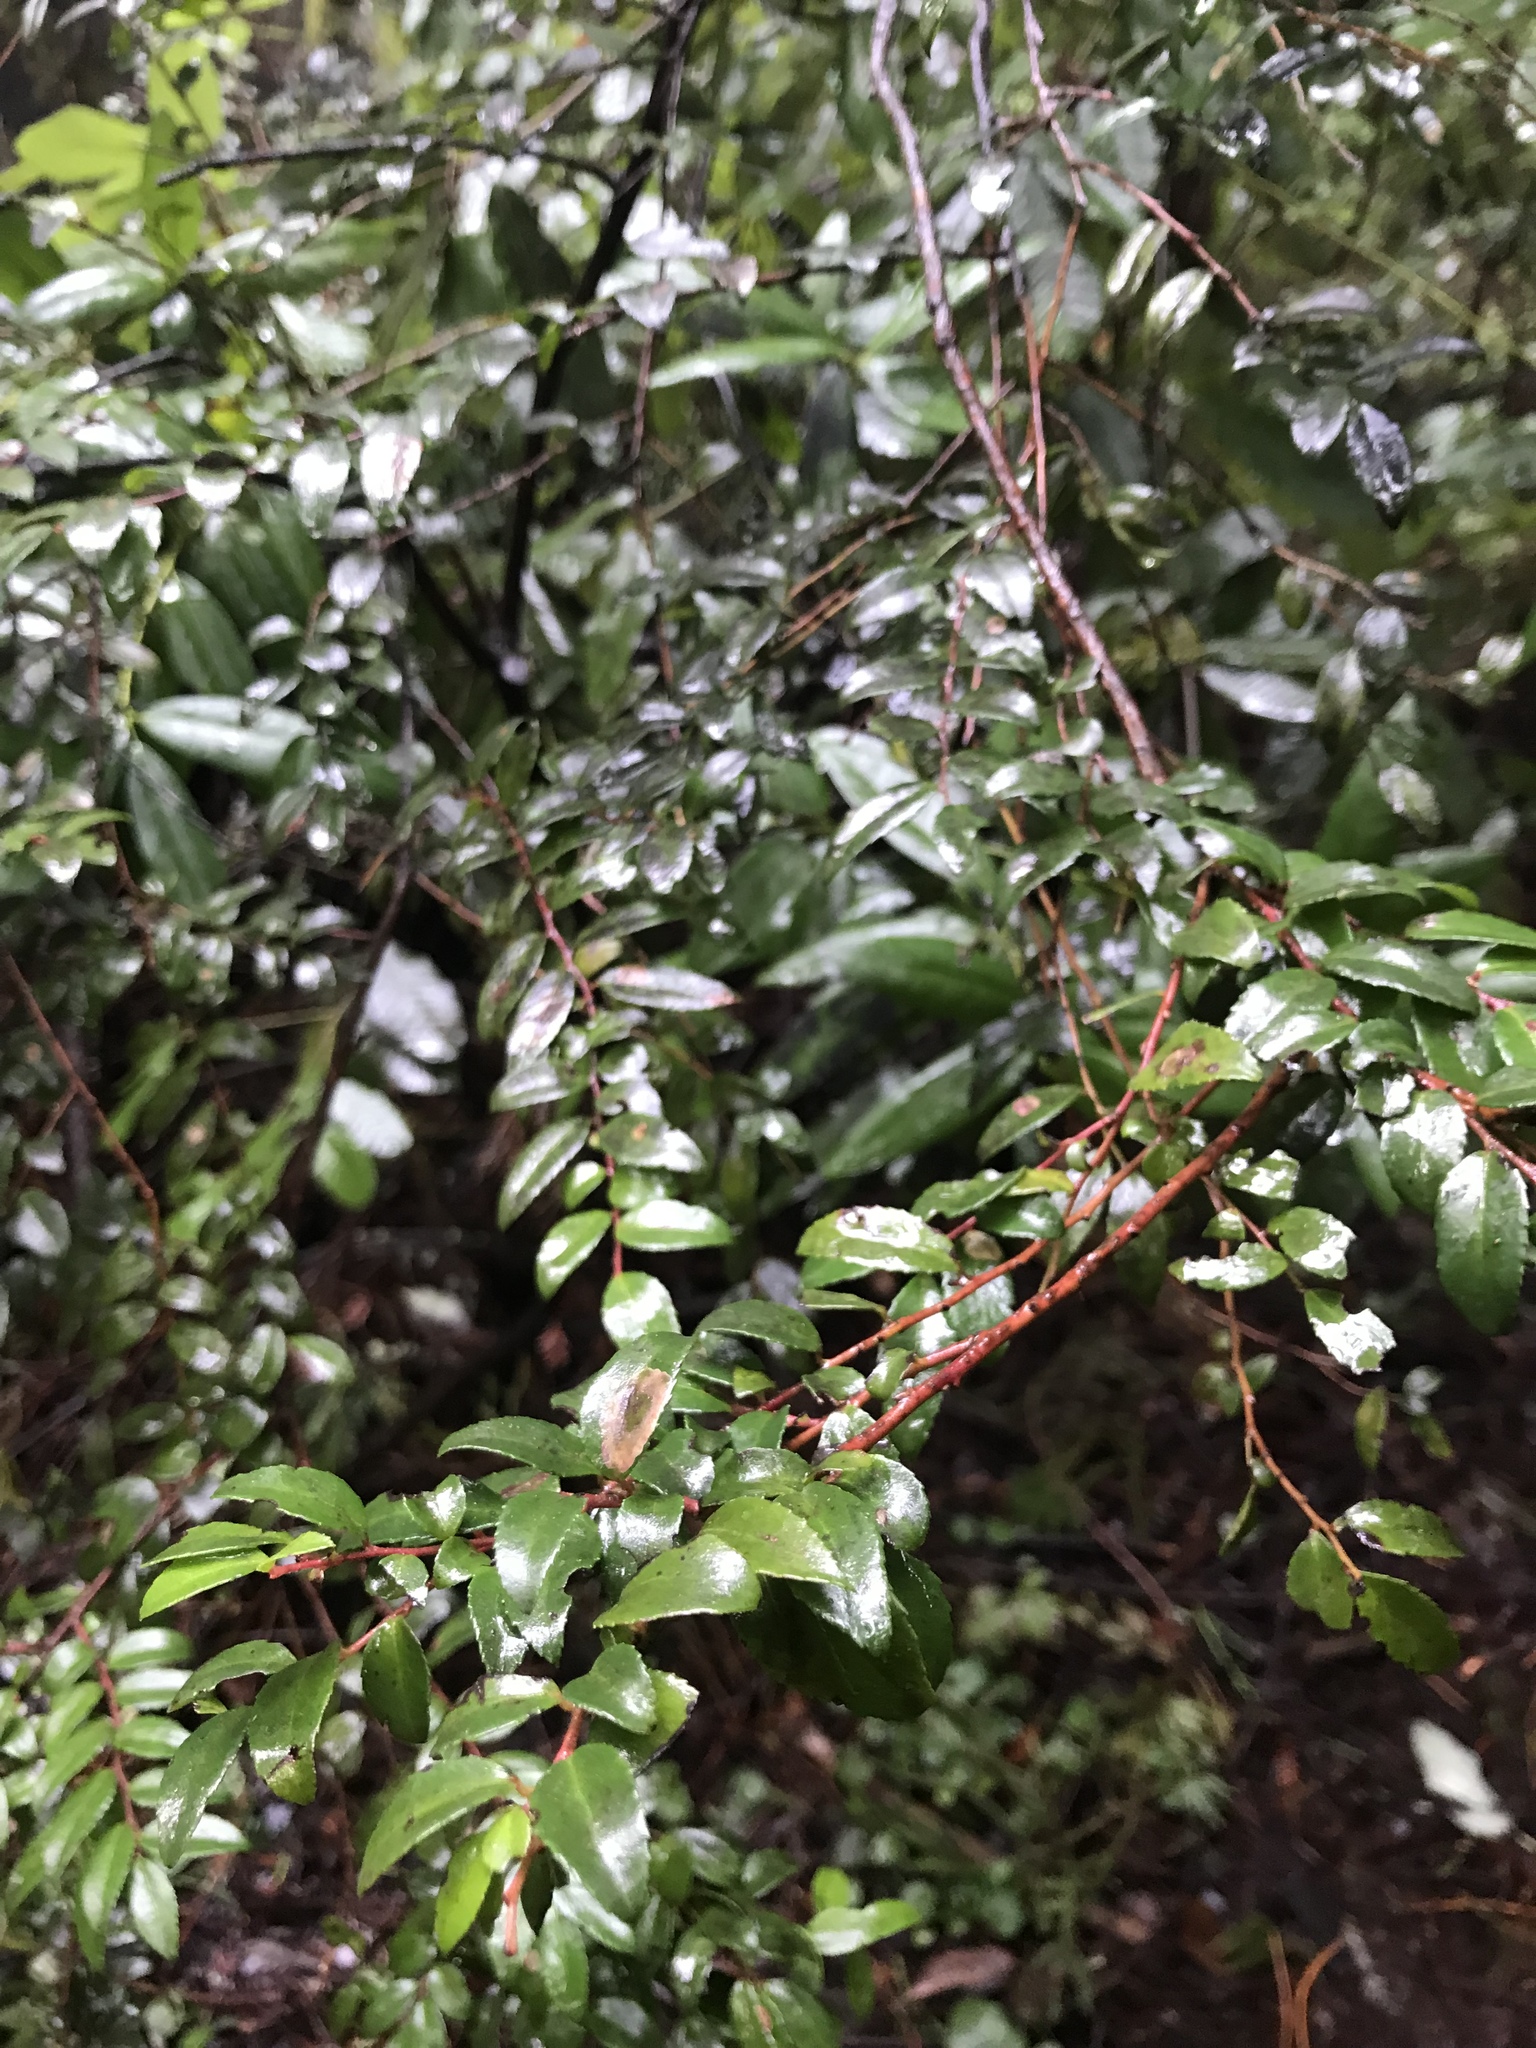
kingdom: Plantae
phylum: Tracheophyta
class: Magnoliopsida
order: Ericales
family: Ericaceae
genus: Vaccinium
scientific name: Vaccinium ovatum
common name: California-huckleberry
